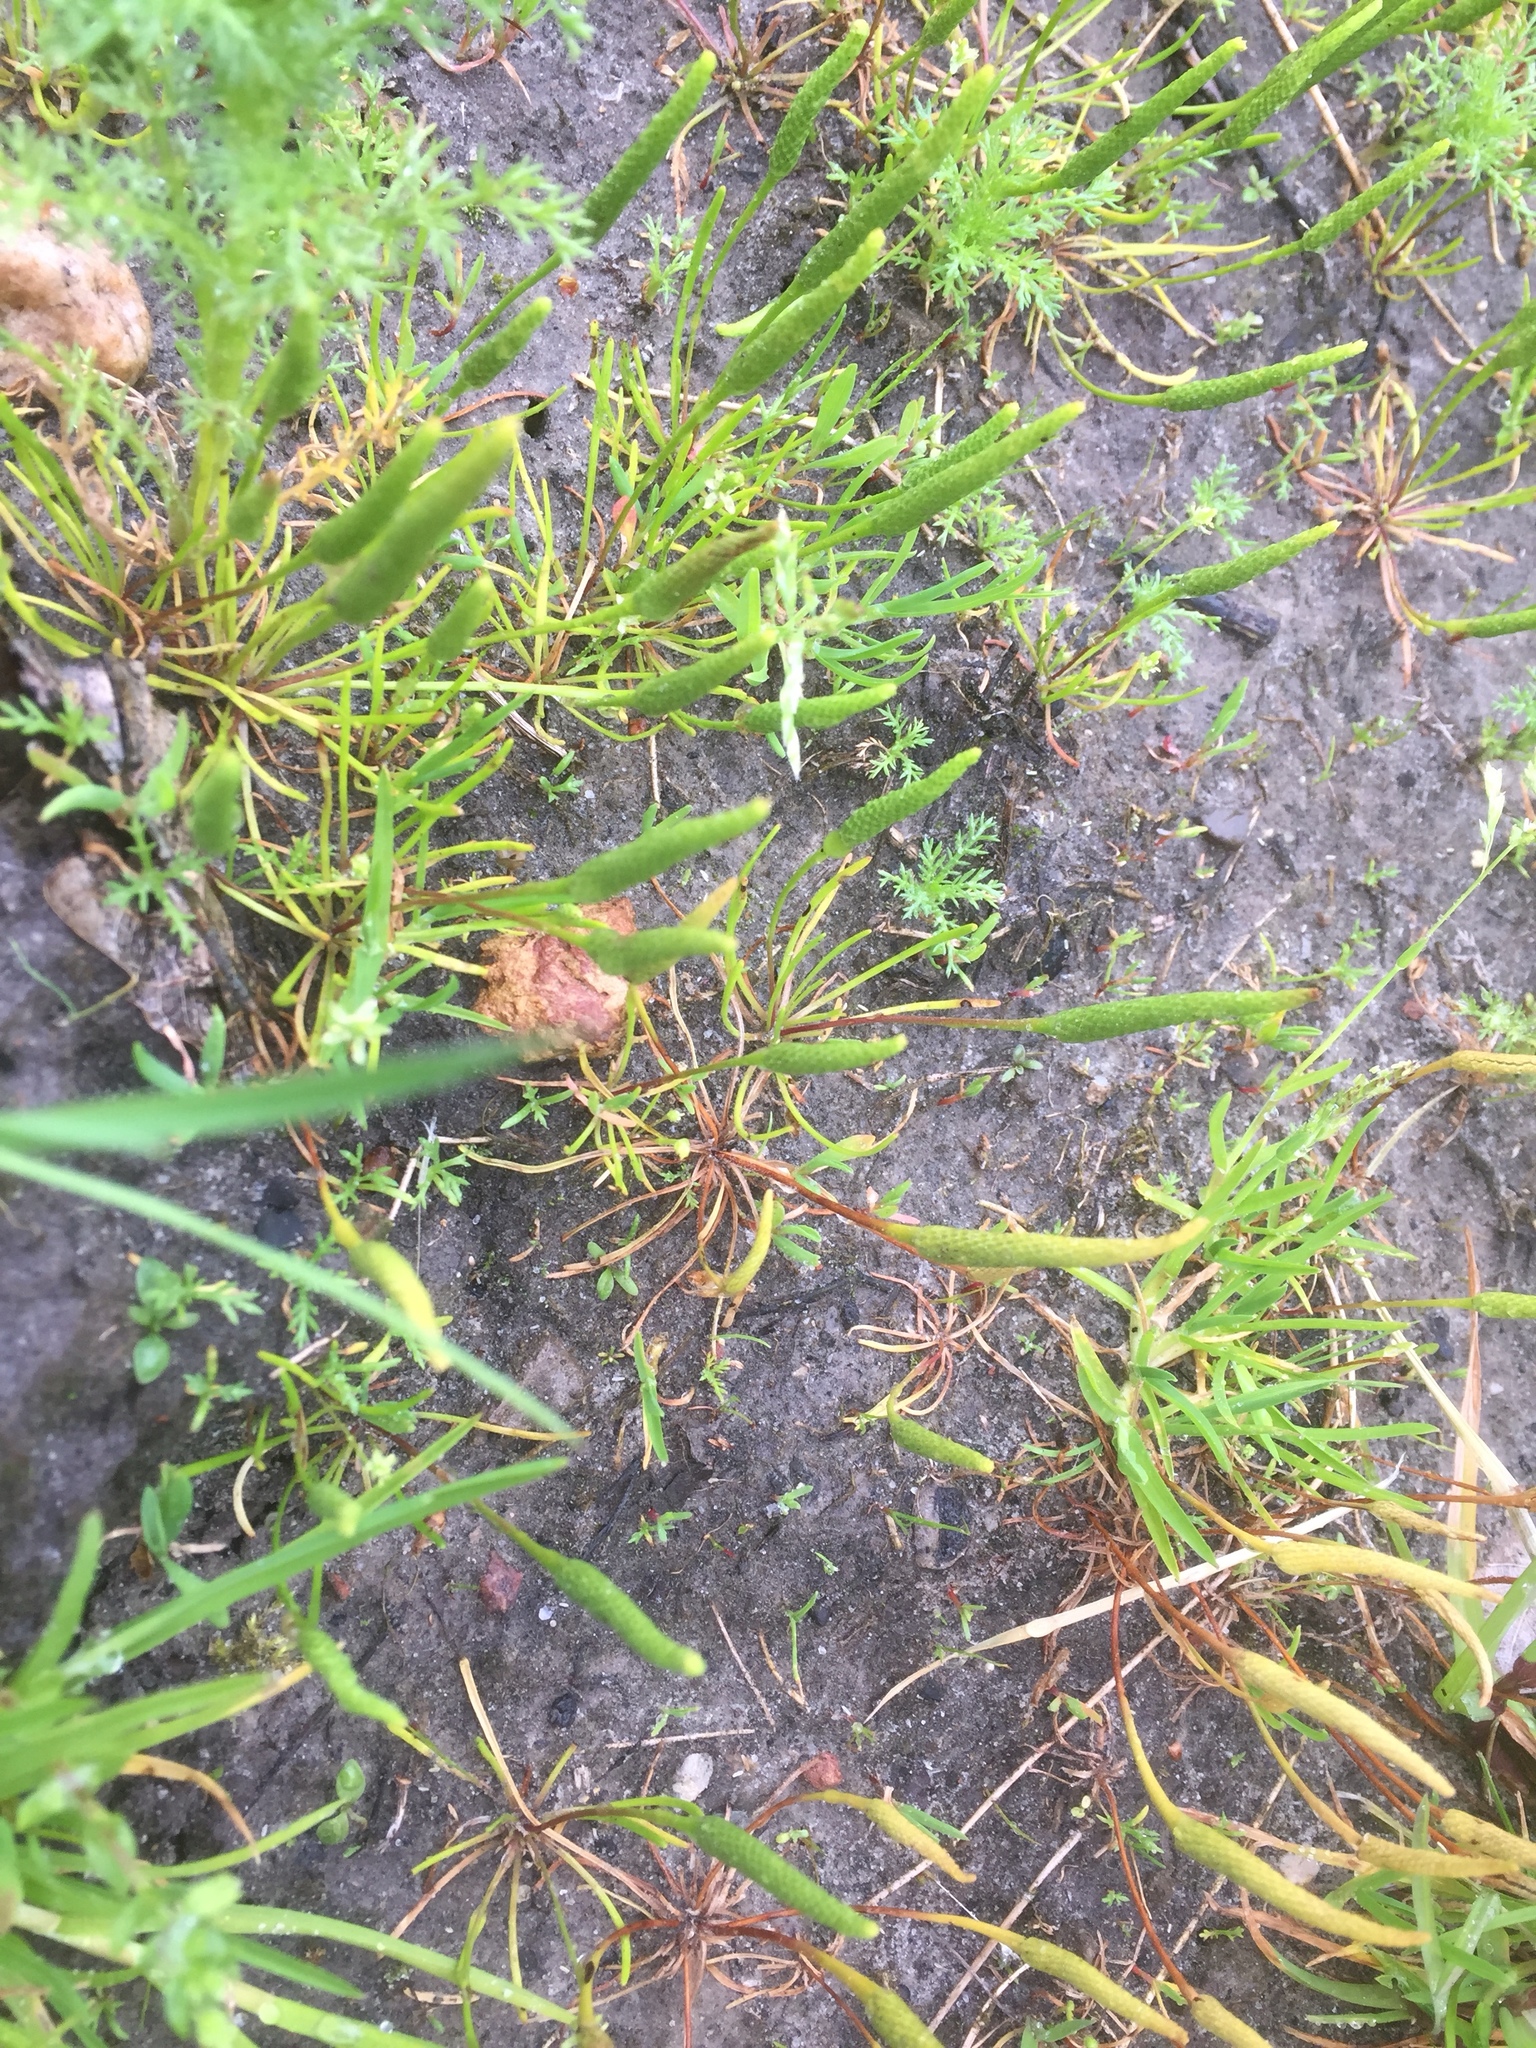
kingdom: Plantae
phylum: Tracheophyta
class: Magnoliopsida
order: Ranunculales
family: Ranunculaceae
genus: Myosurus
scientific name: Myosurus minimus
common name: Mousetail
